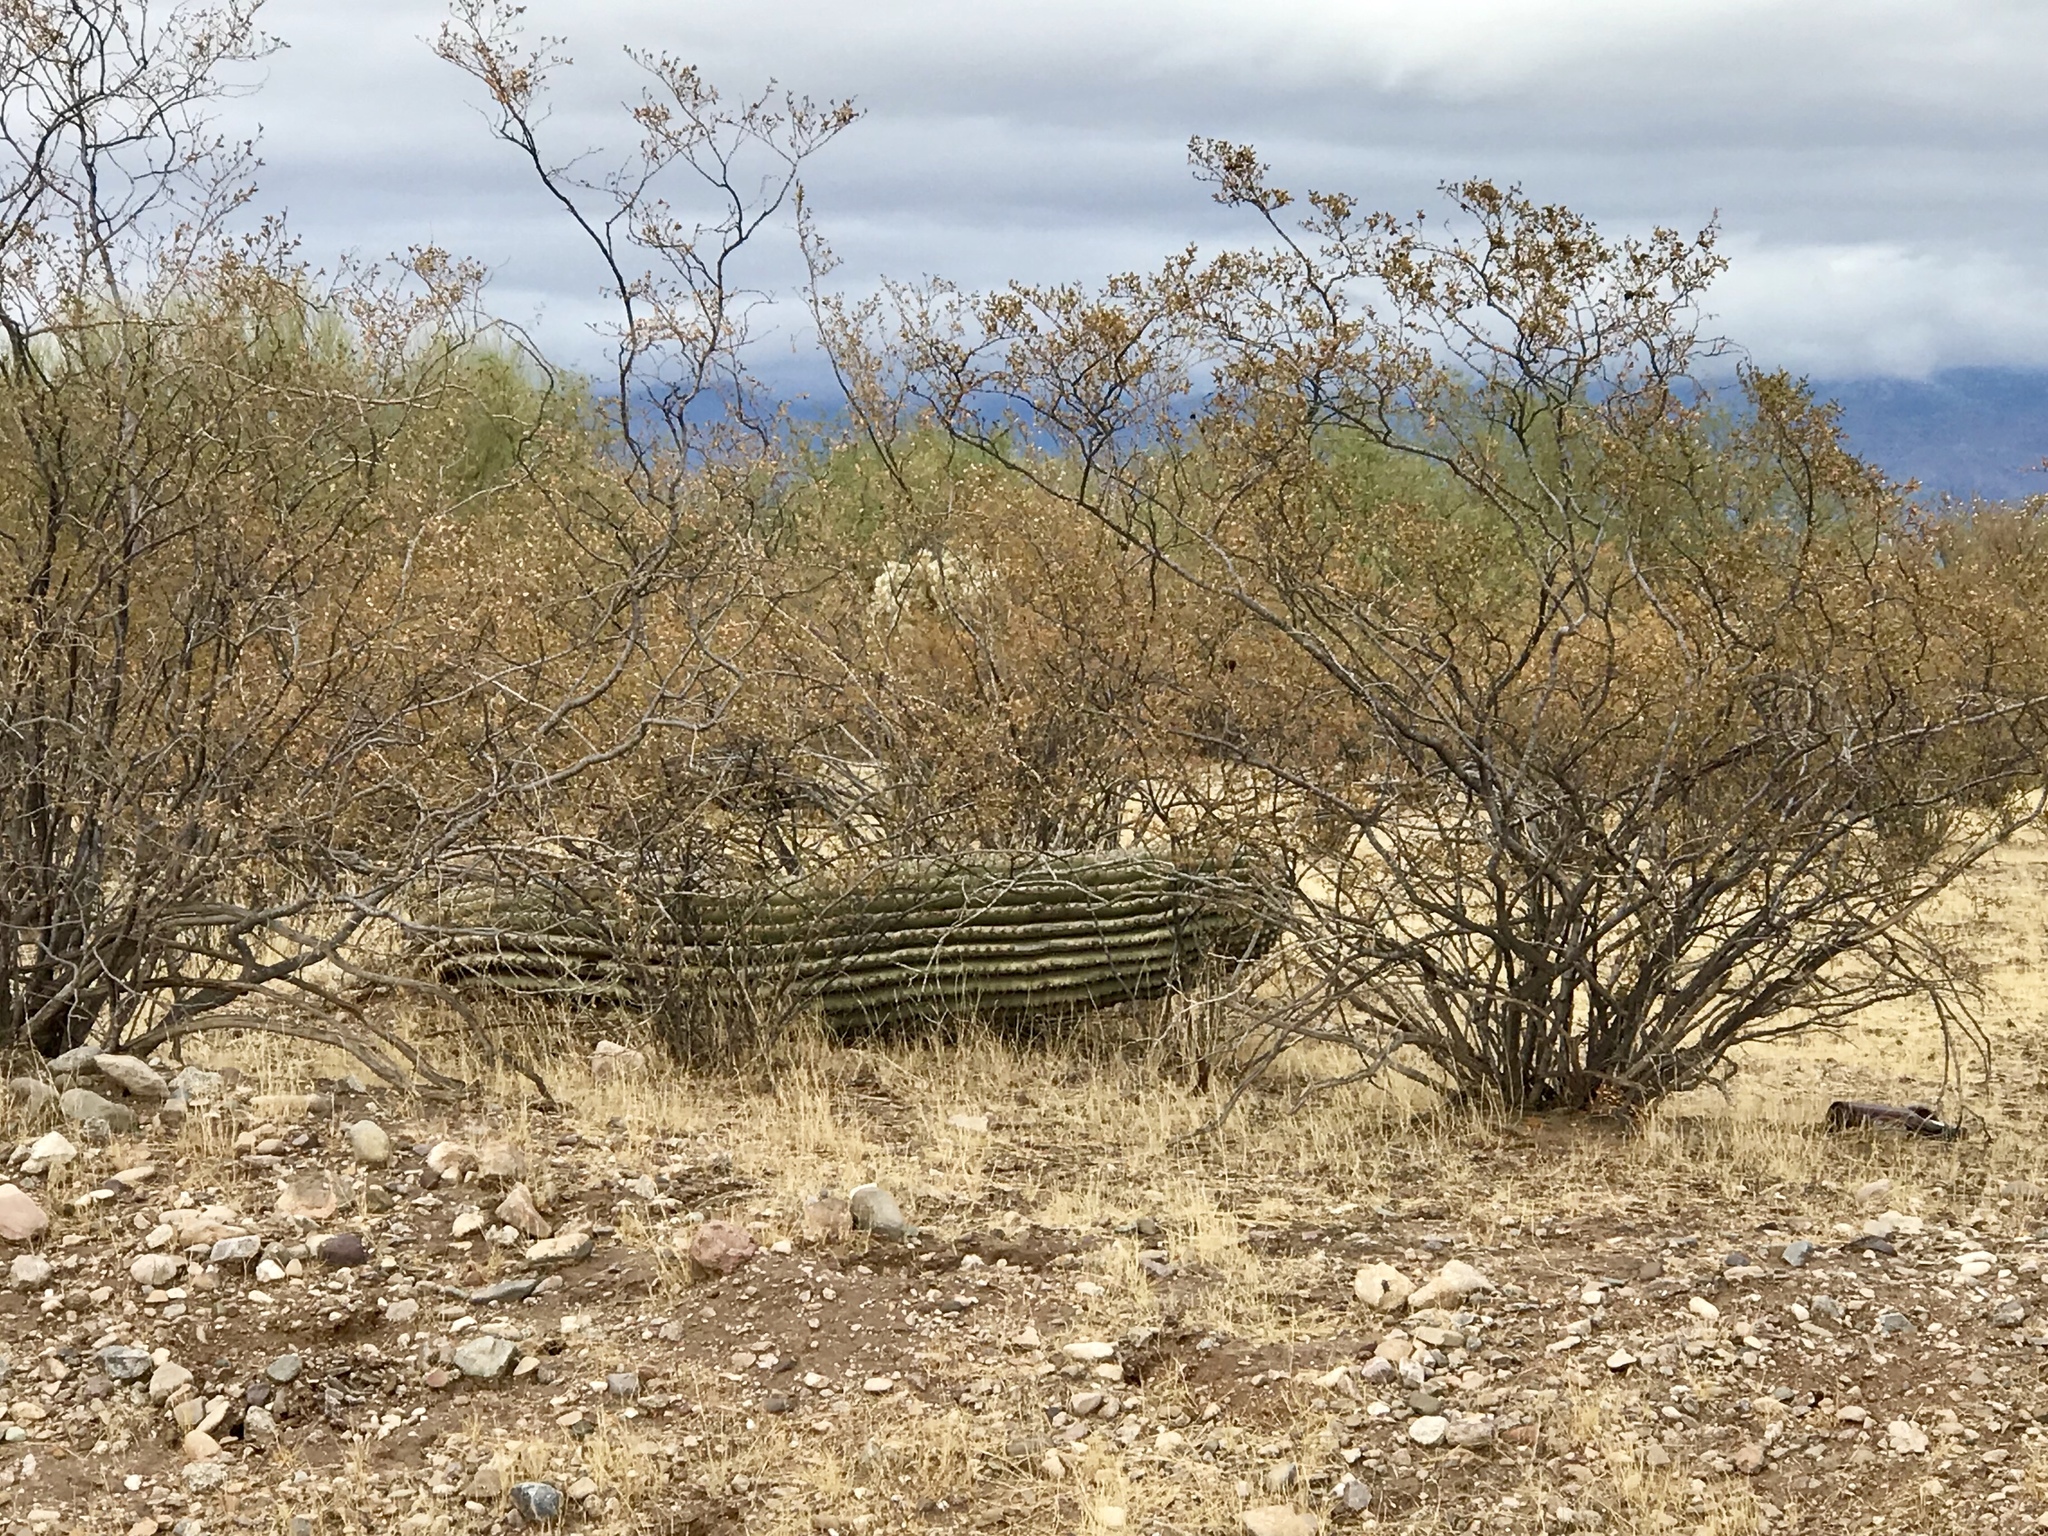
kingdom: Plantae
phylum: Tracheophyta
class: Magnoliopsida
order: Zygophyllales
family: Zygophyllaceae
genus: Larrea
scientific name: Larrea tridentata
